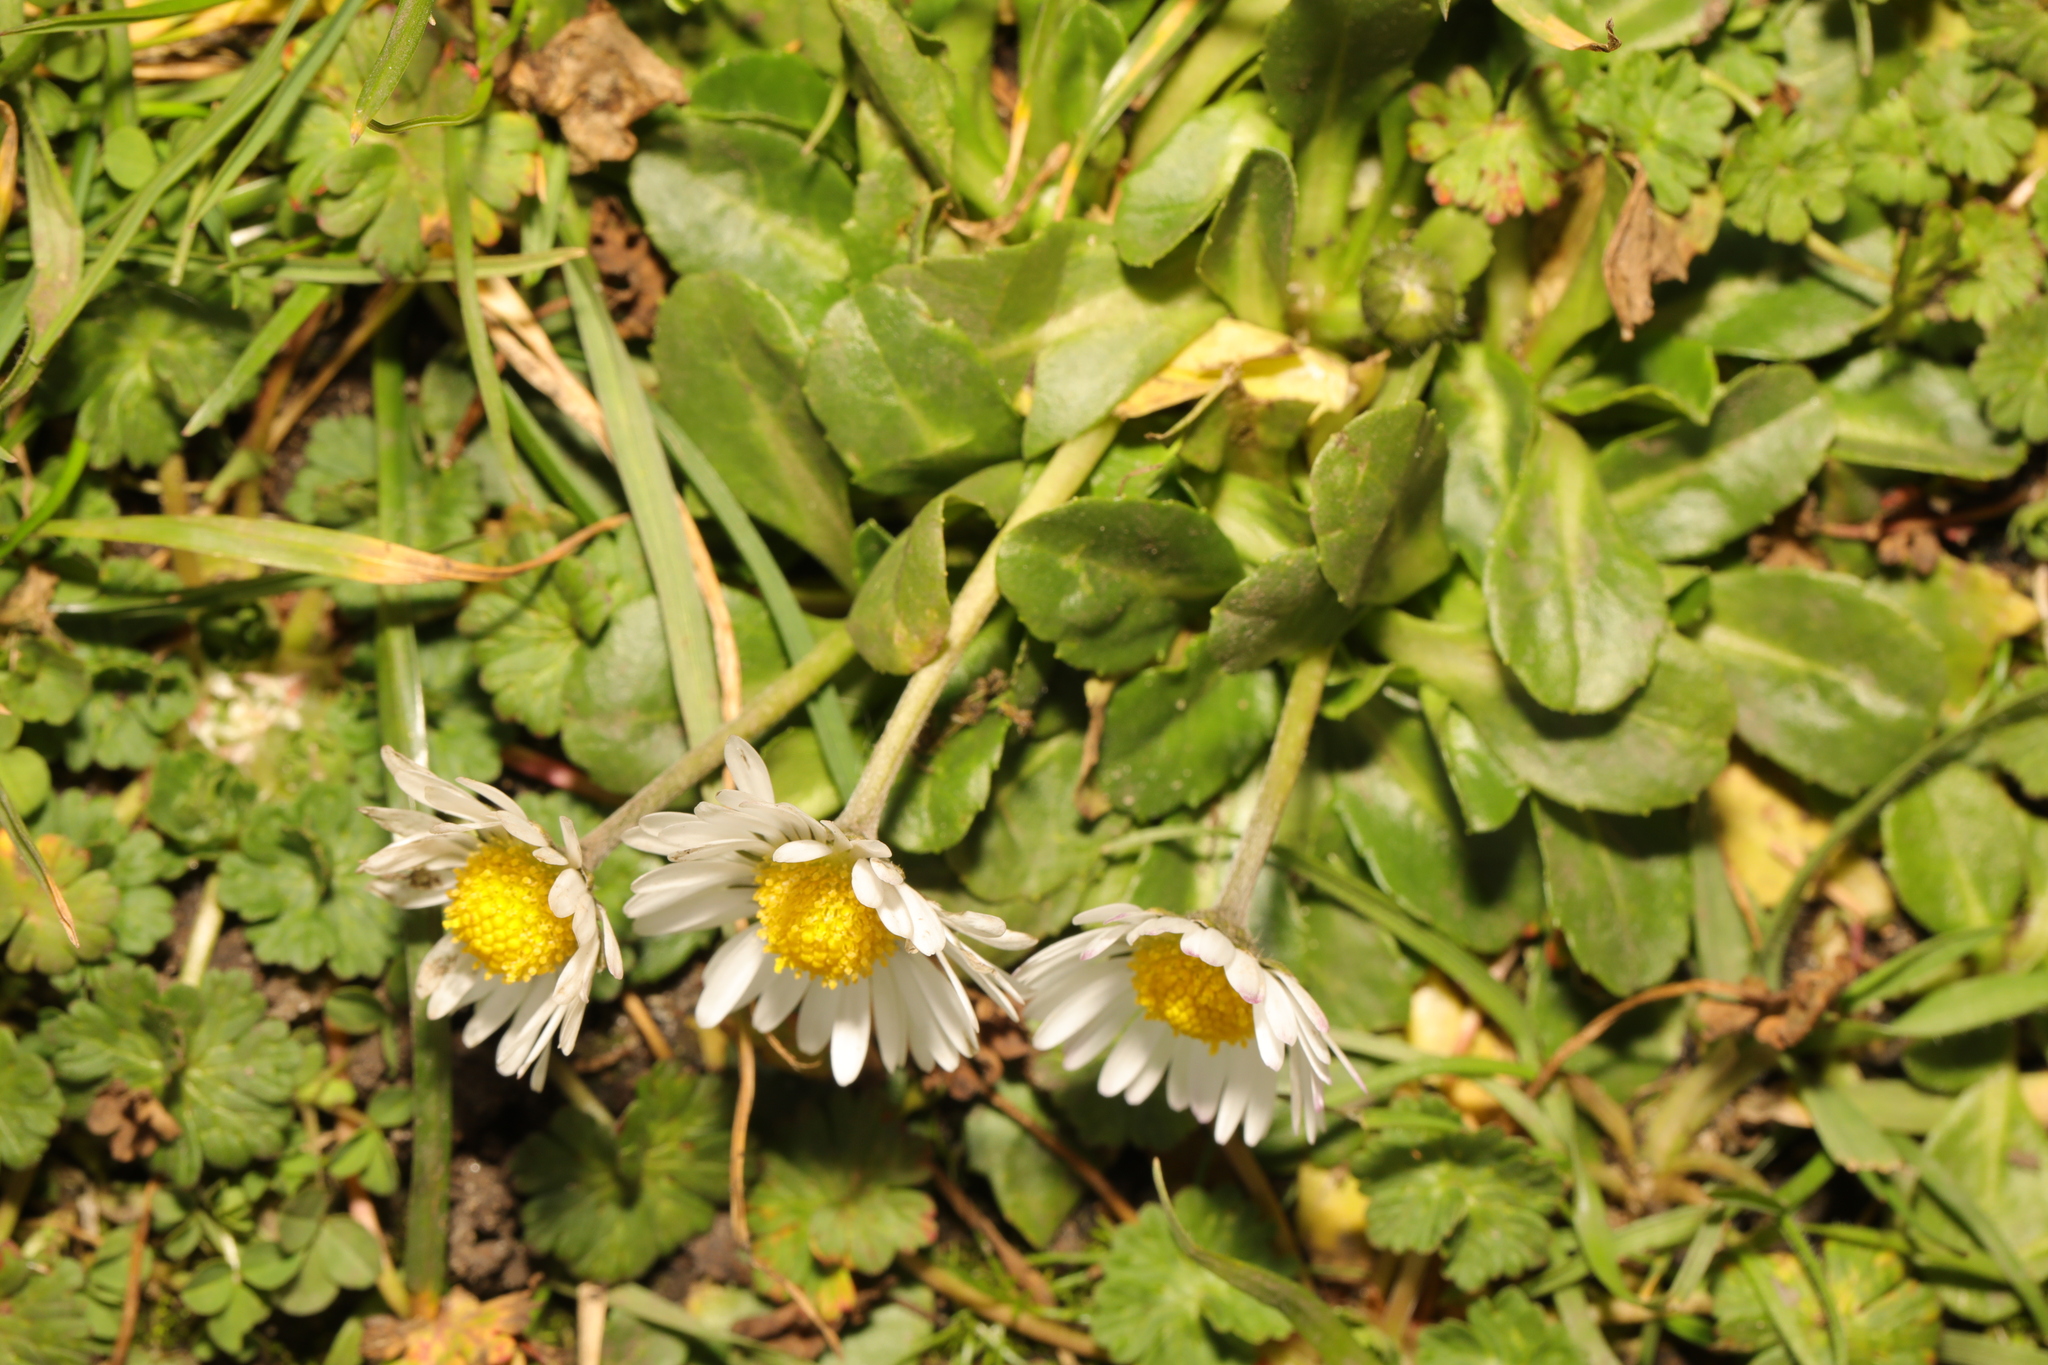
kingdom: Plantae
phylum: Tracheophyta
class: Magnoliopsida
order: Asterales
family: Asteraceae
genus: Bellis
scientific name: Bellis perennis
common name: Lawndaisy
